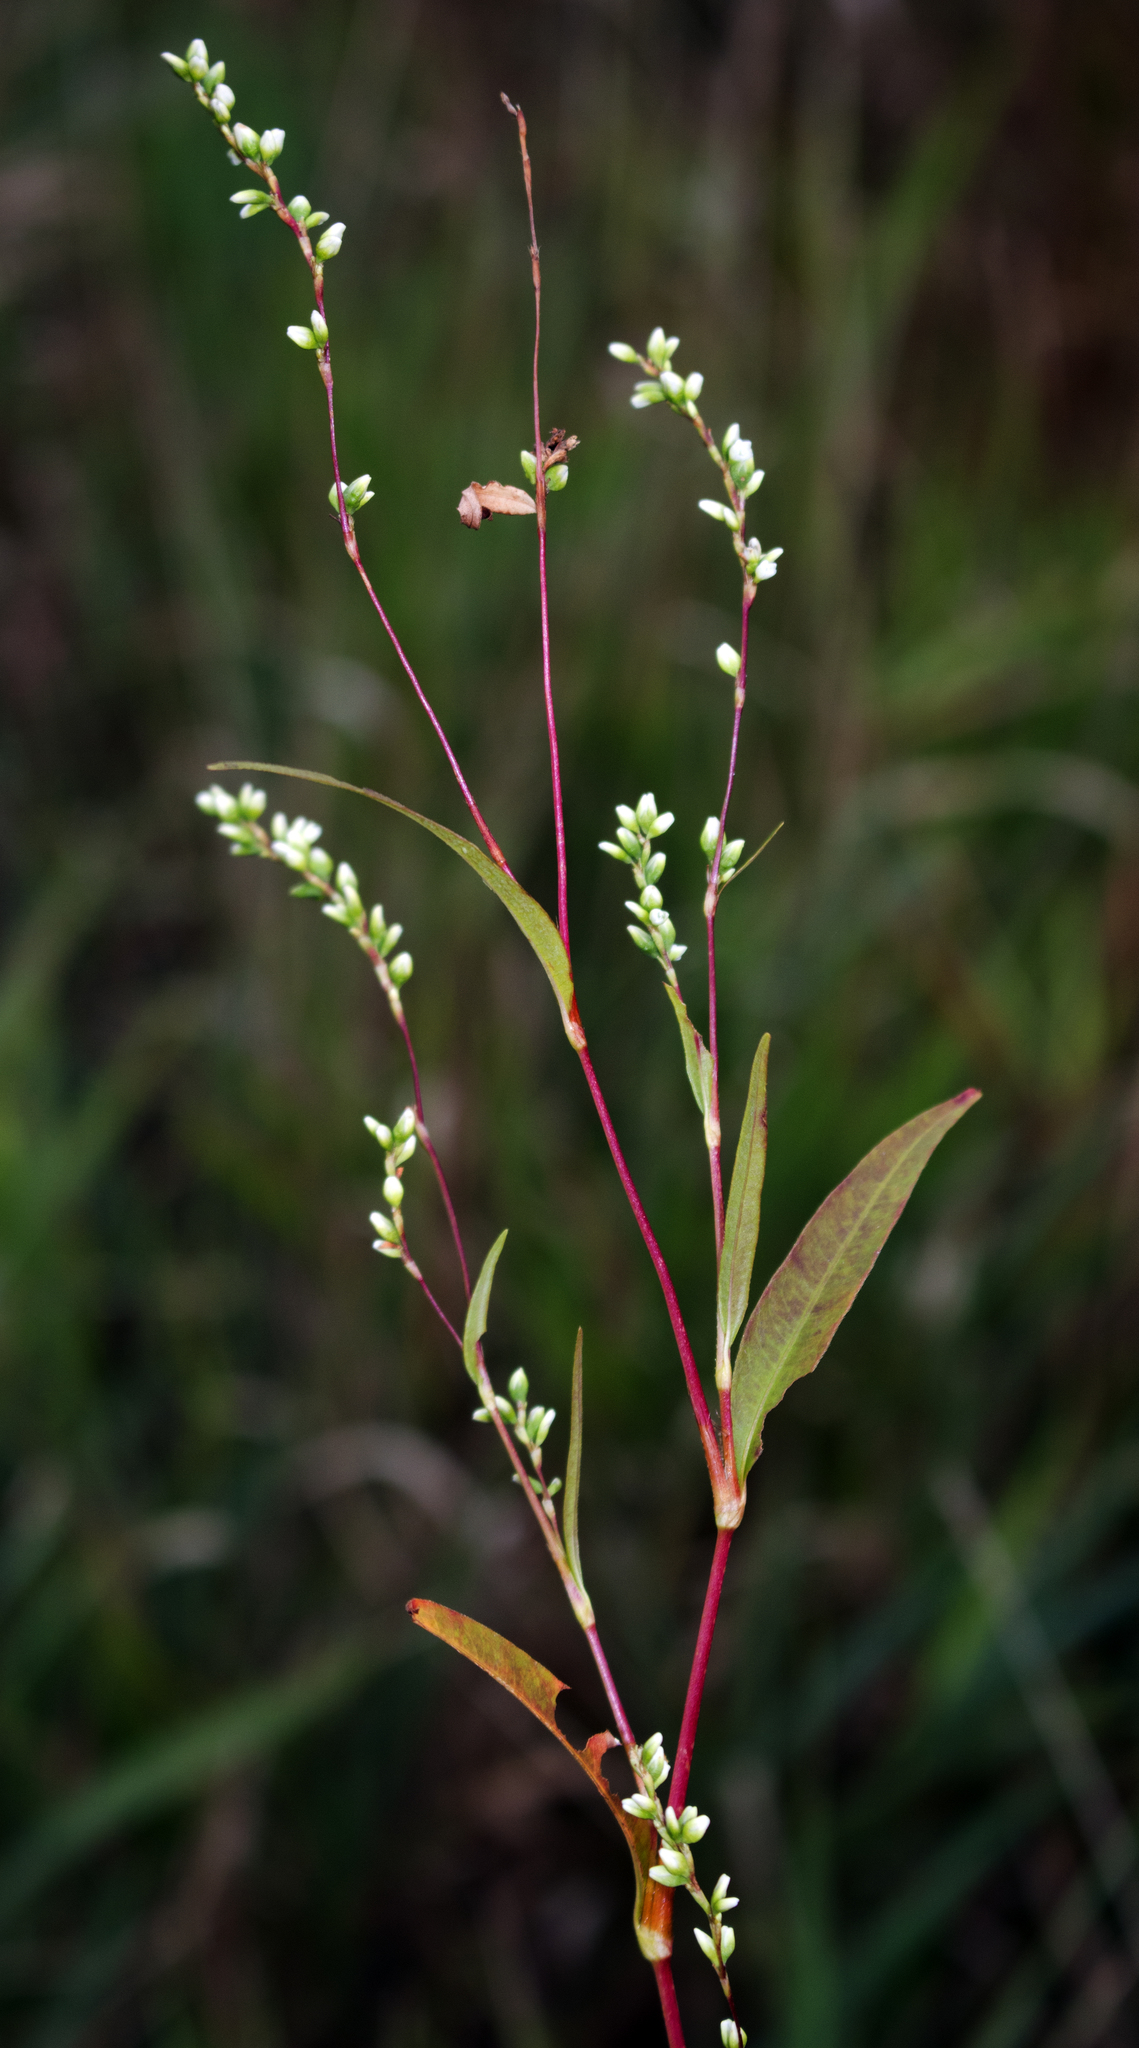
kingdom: Plantae
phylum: Tracheophyta
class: Magnoliopsida
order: Caryophyllales
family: Polygonaceae
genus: Persicaria
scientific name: Persicaria punctata
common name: Dotted smartweed
